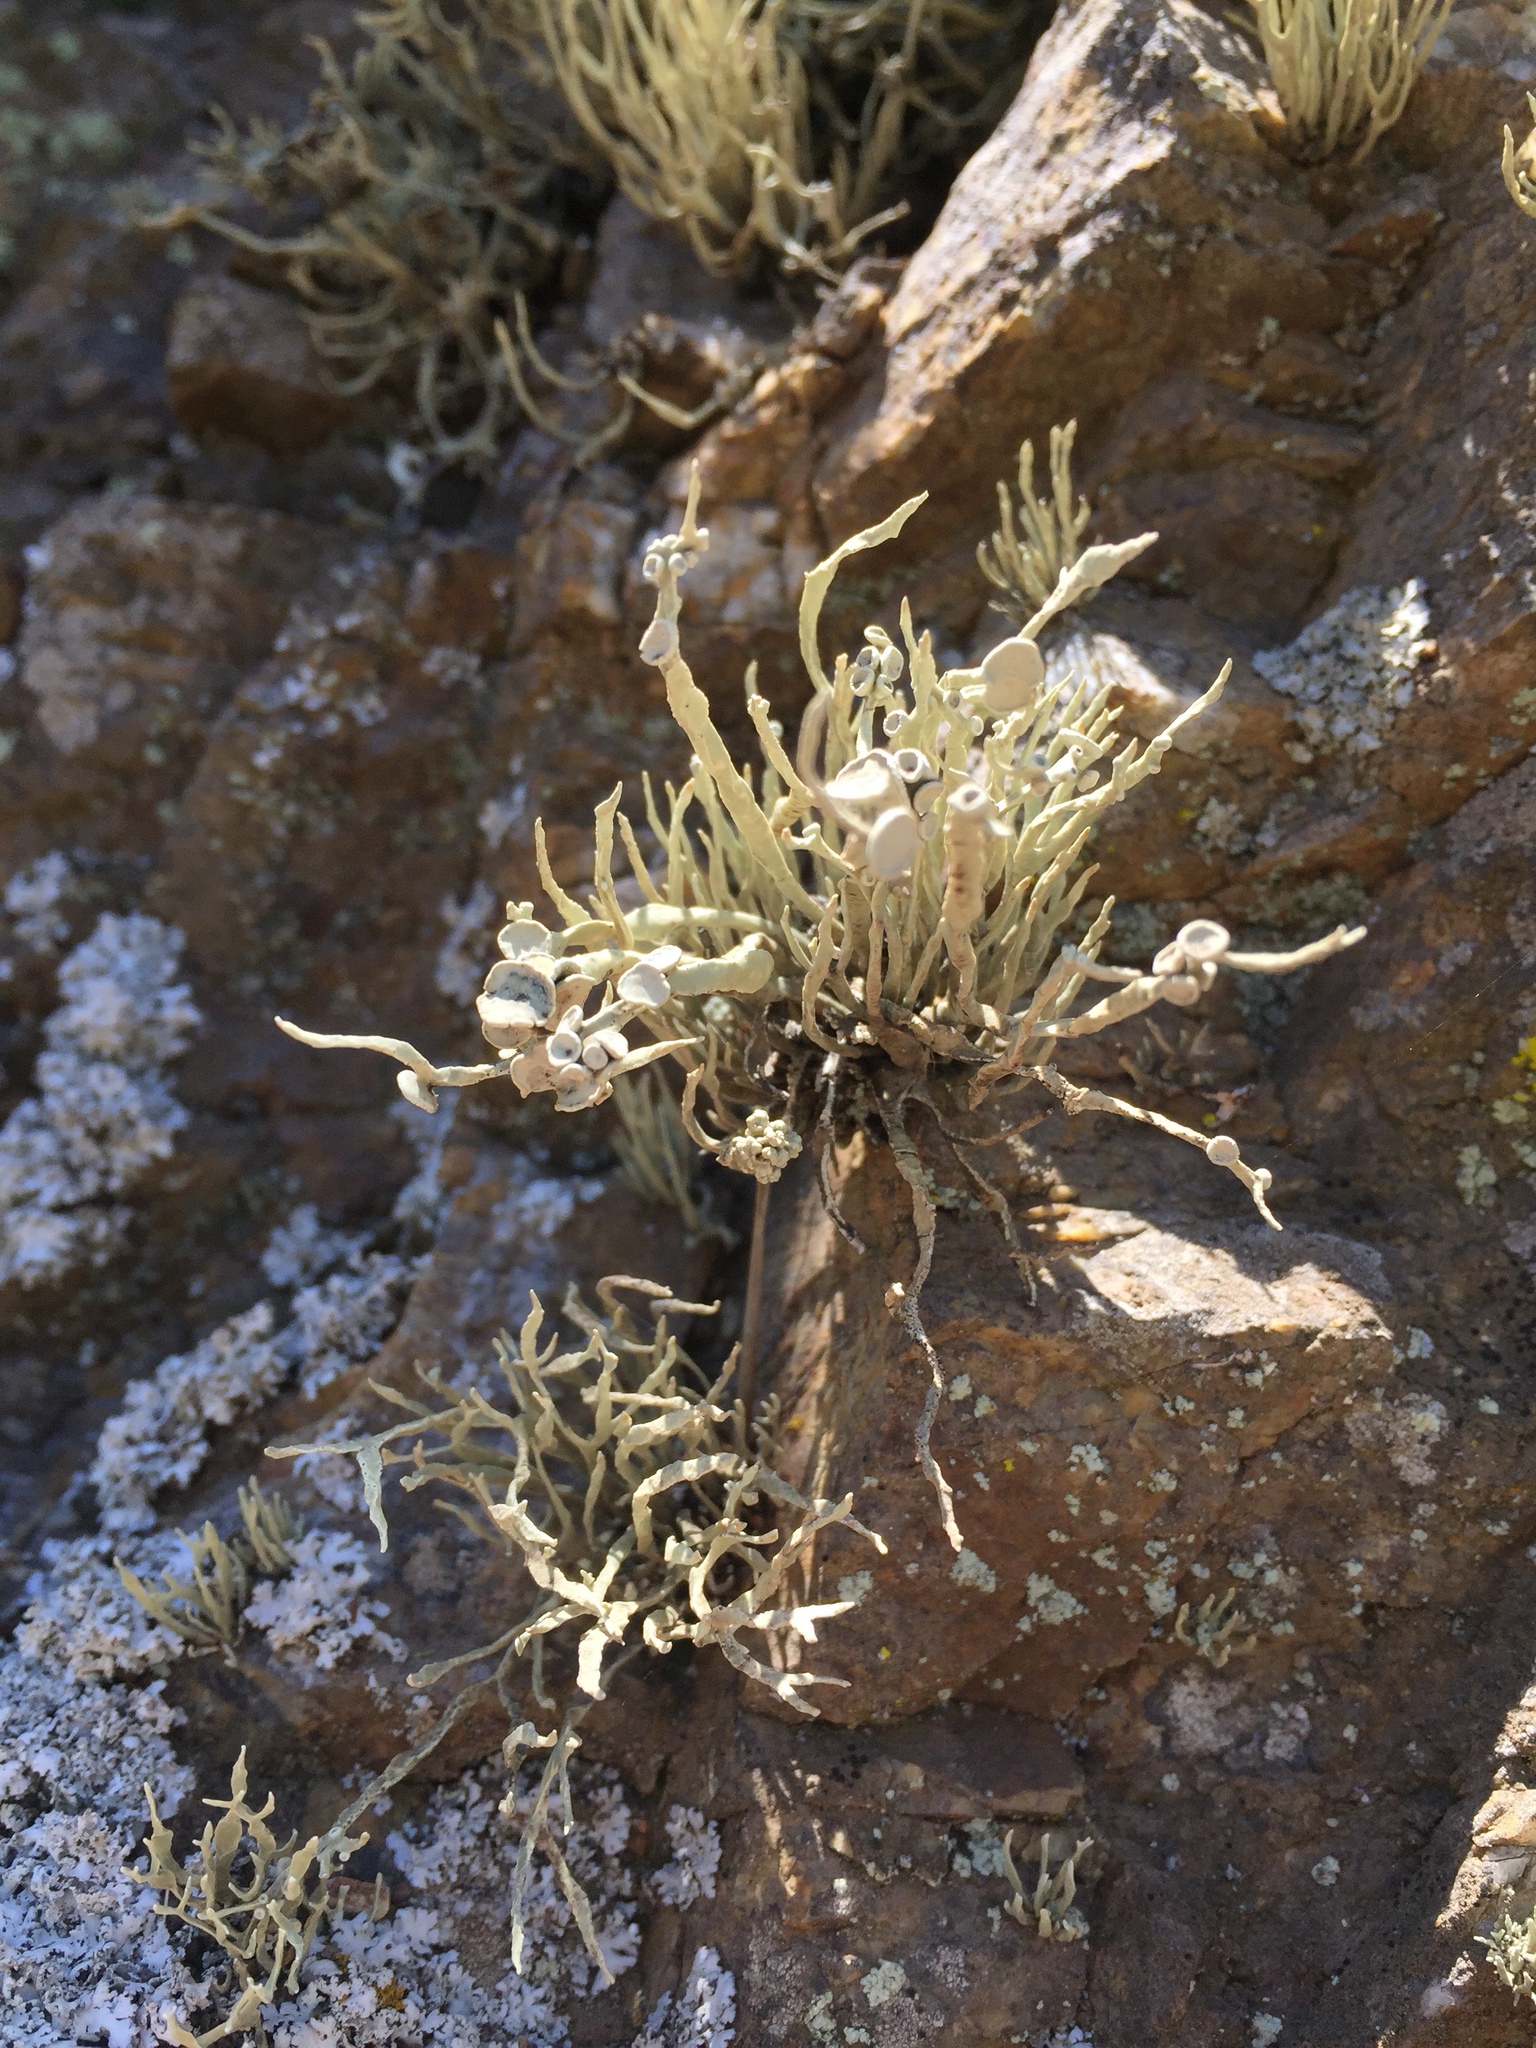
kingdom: Fungi
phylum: Ascomycota
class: Lecanoromycetes
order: Lecanorales
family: Ramalinaceae
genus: Niebla
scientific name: Niebla homalea
